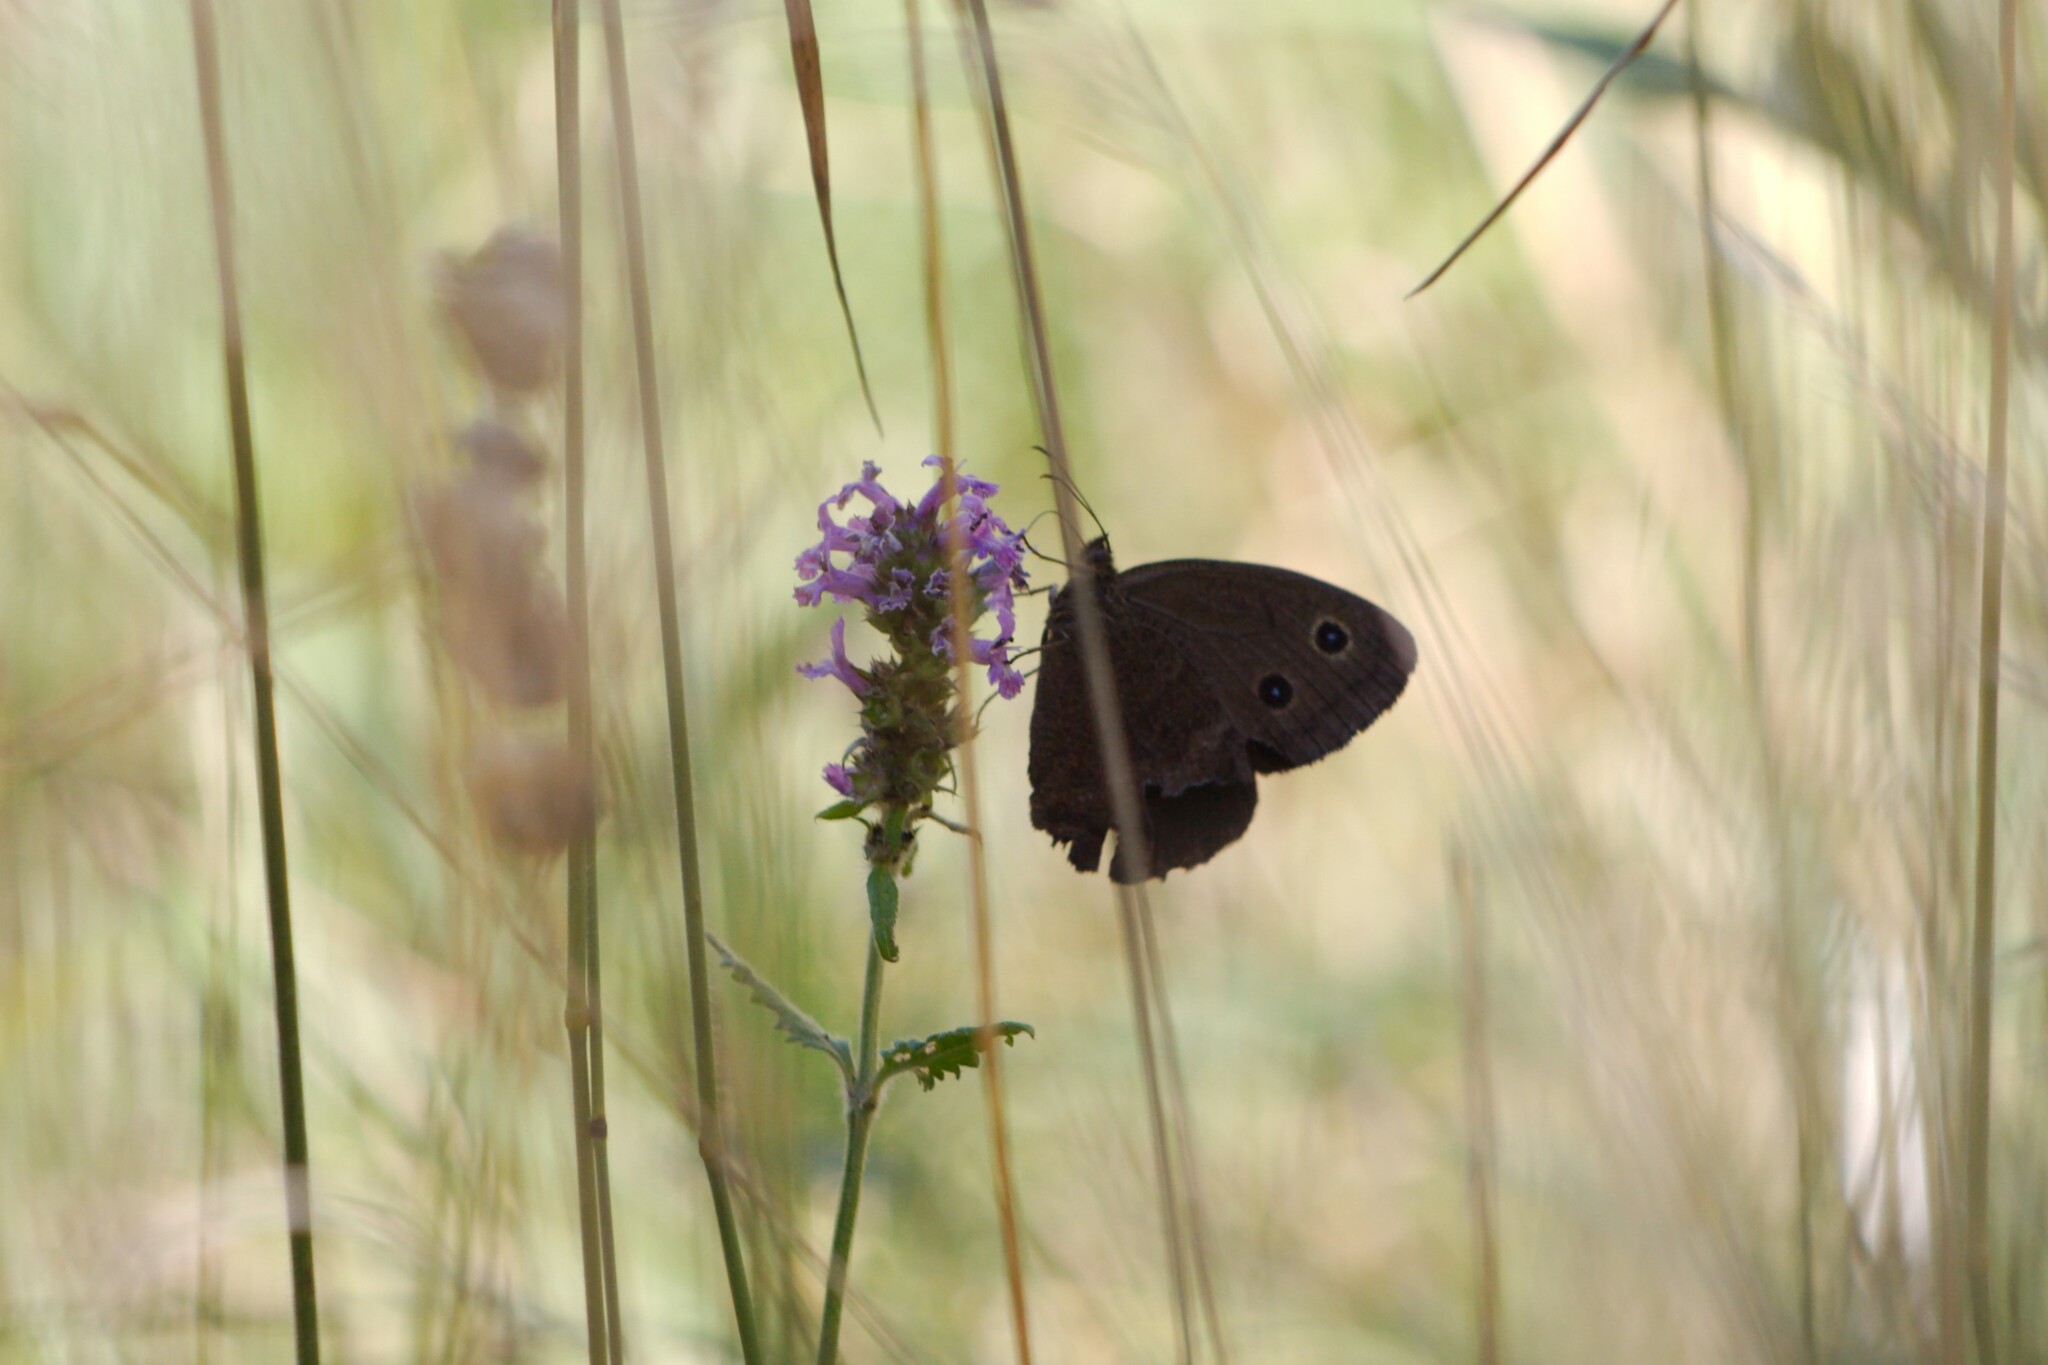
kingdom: Animalia
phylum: Arthropoda
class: Insecta
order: Lepidoptera
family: Nymphalidae
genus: Minois
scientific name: Minois dryas
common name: Dryad
